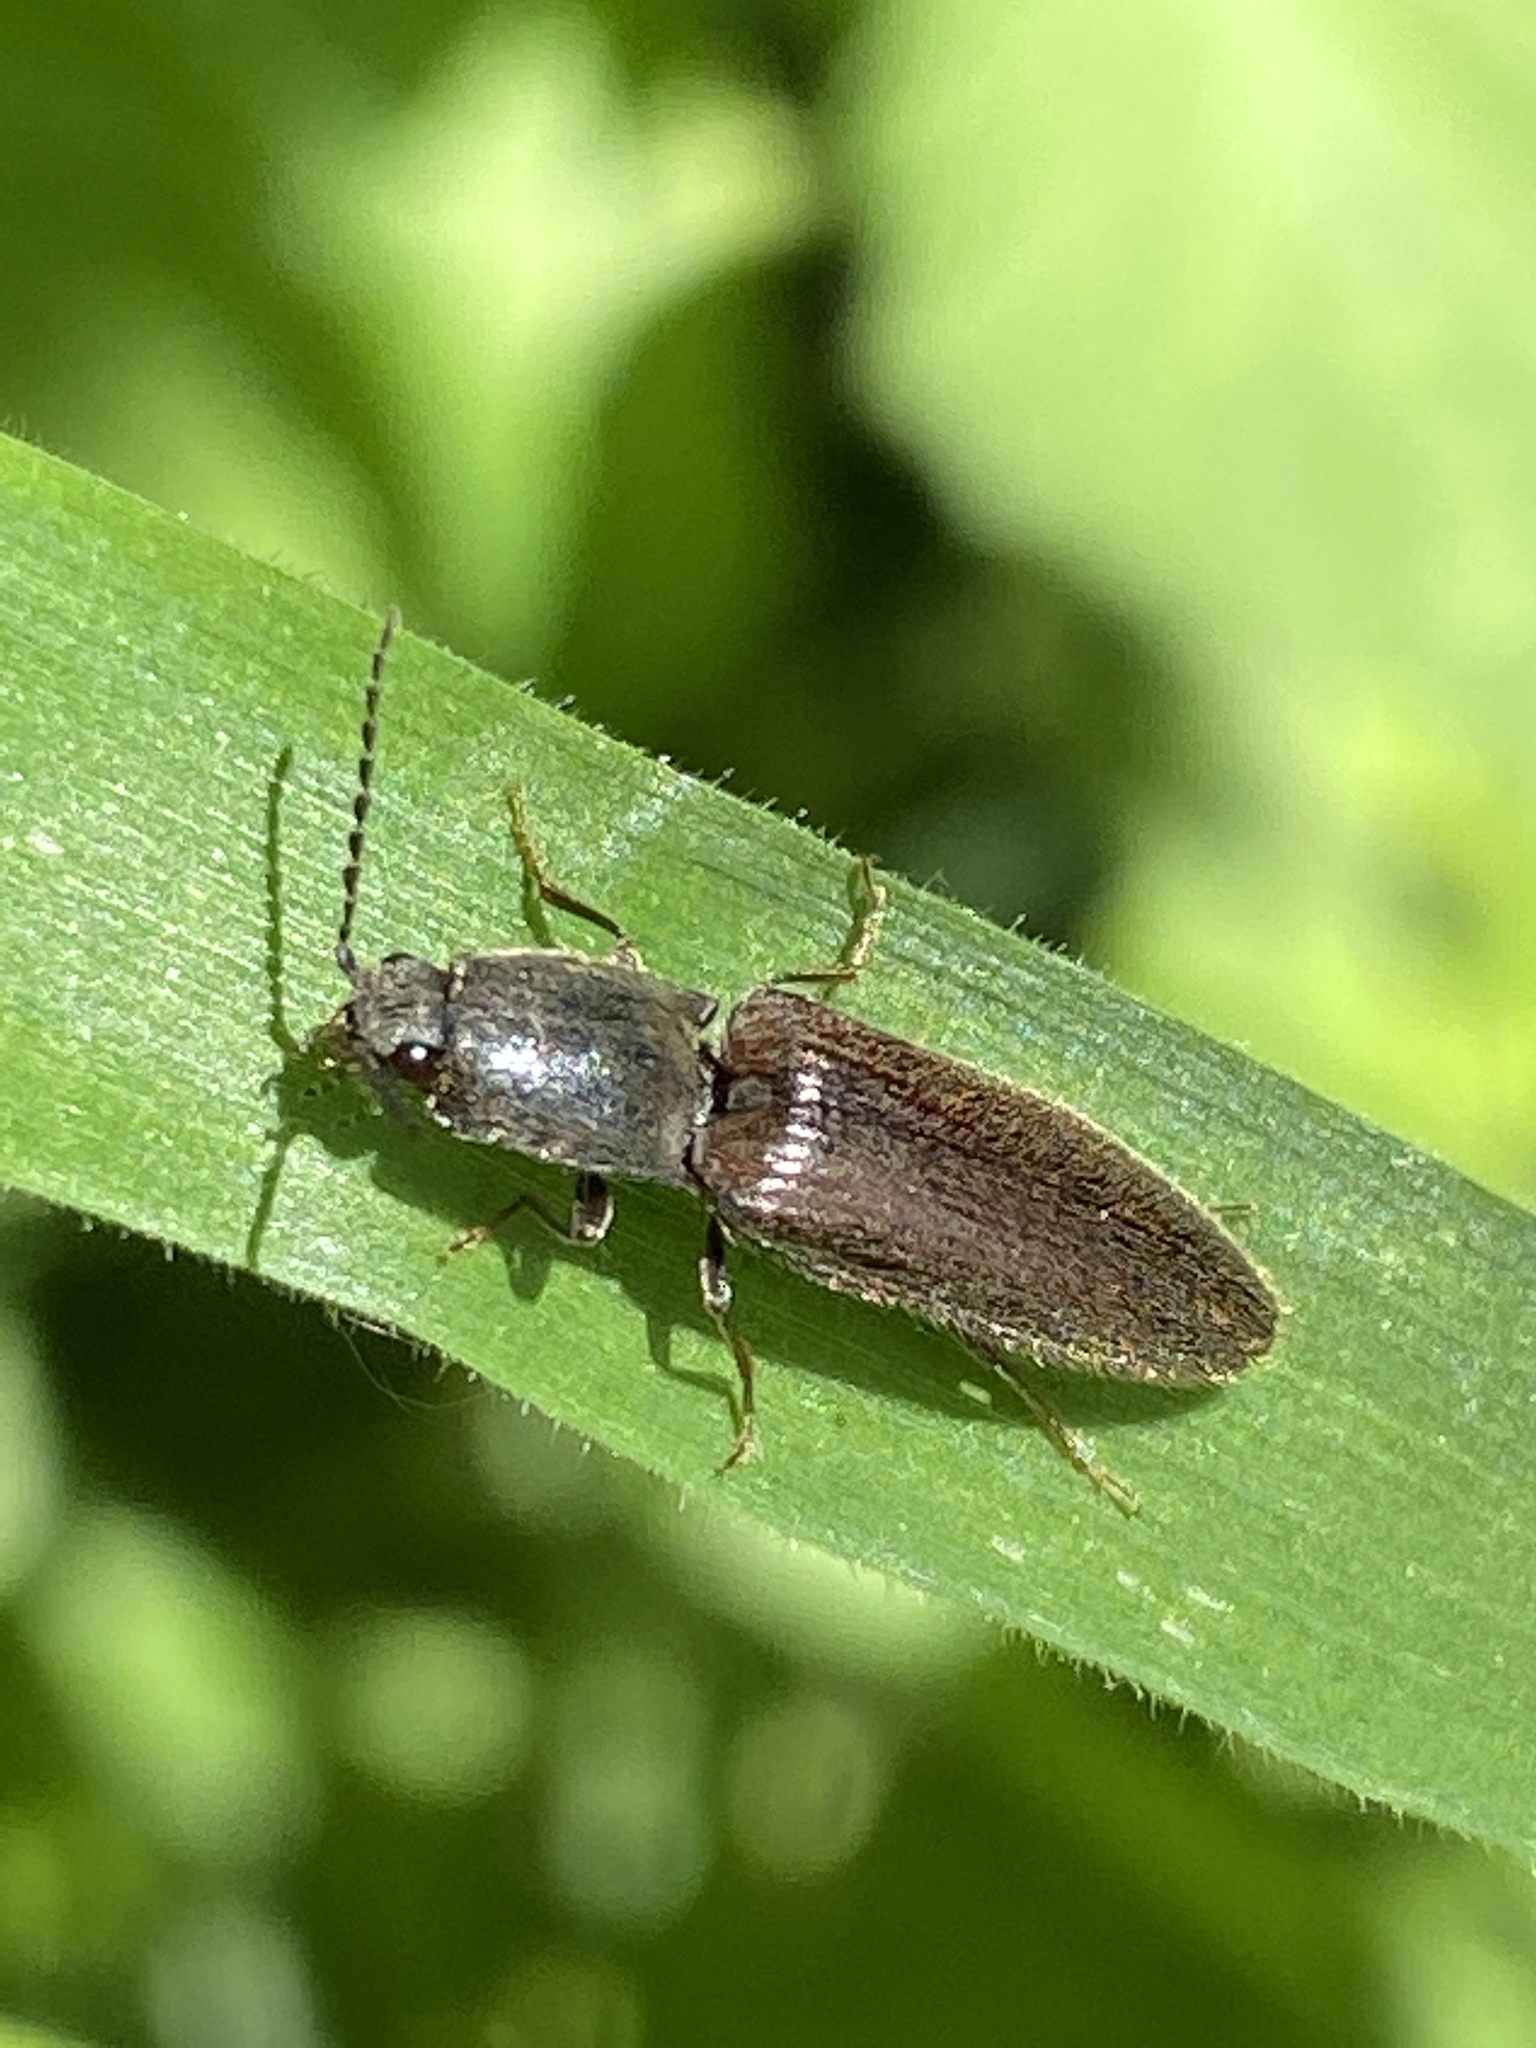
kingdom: Animalia
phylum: Arthropoda
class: Insecta
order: Coleoptera
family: Elateridae
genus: Athous
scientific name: Athous haemorrhoidalis
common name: Red-brown click beetle
